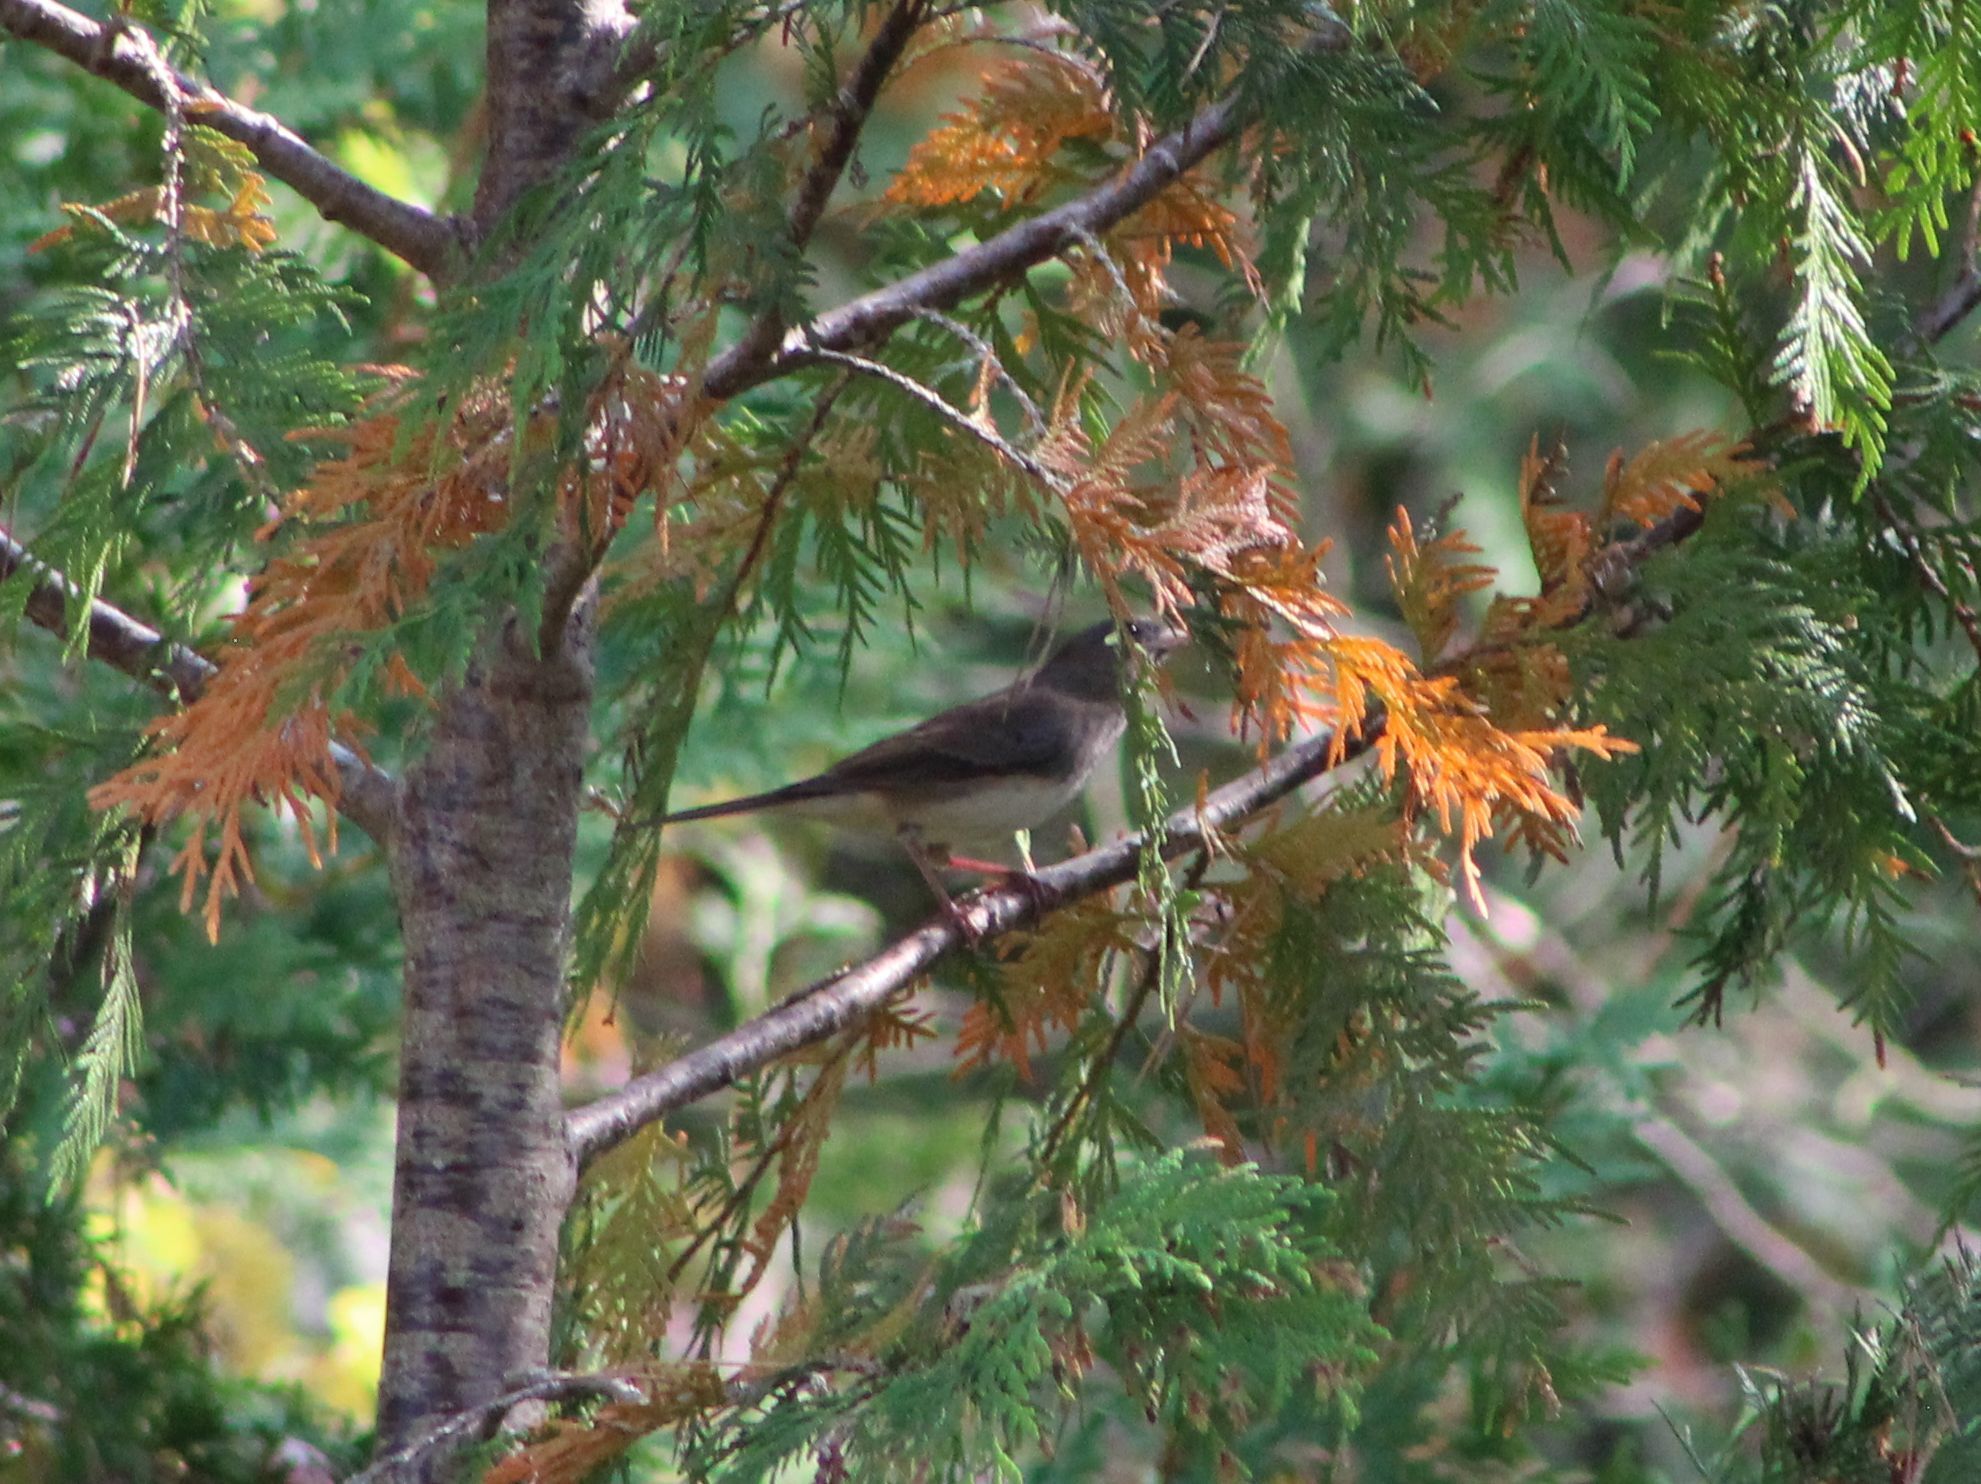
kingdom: Animalia
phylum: Chordata
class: Aves
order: Passeriformes
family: Passerellidae
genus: Junco
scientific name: Junco hyemalis
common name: Dark-eyed junco
